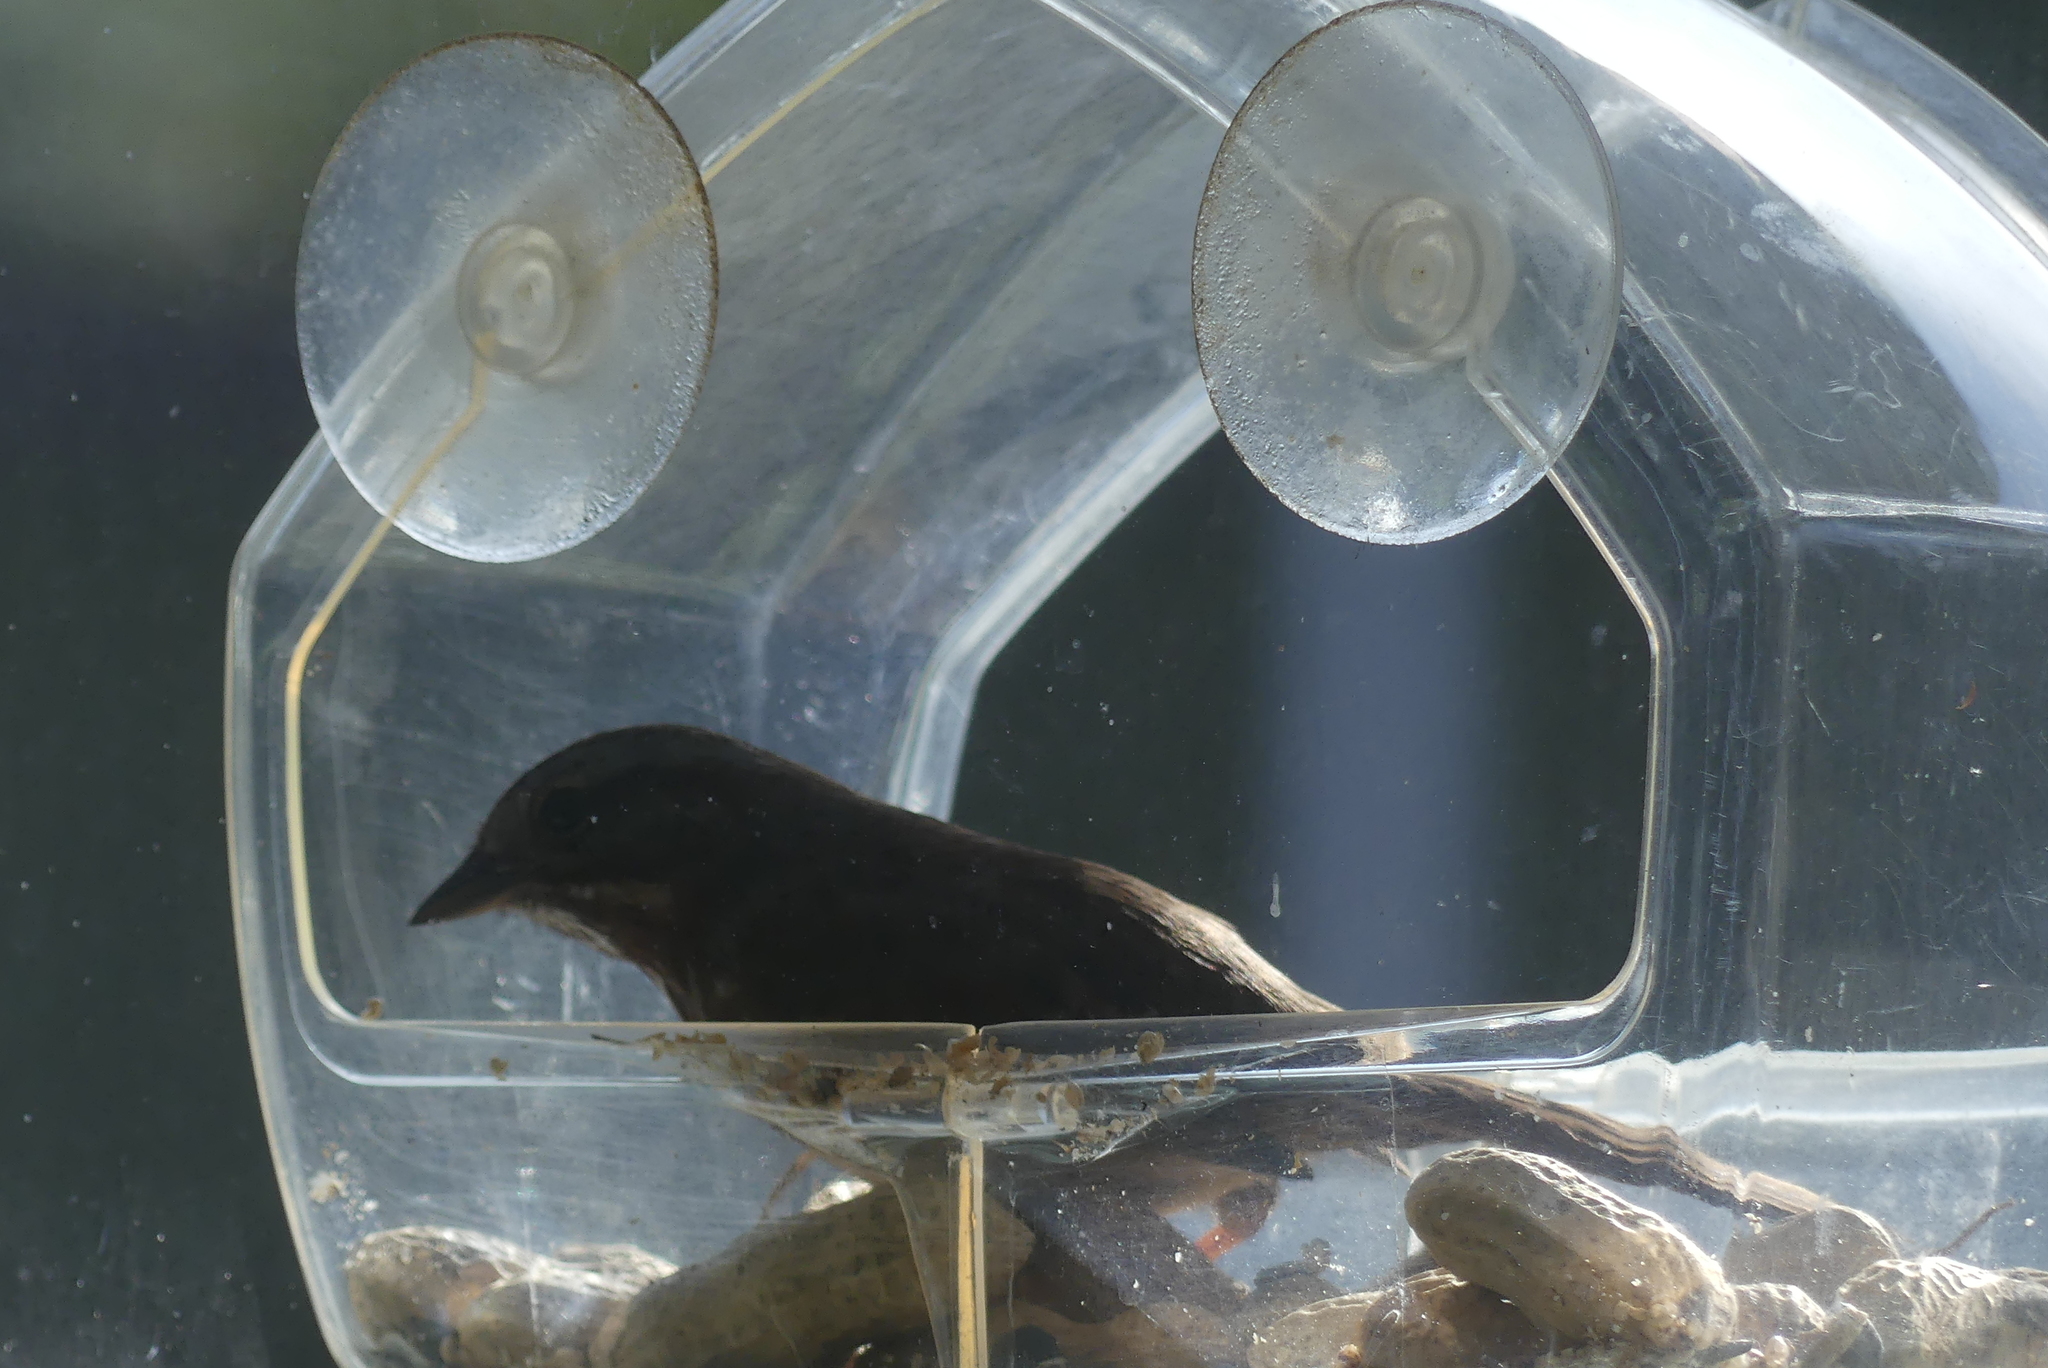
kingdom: Animalia
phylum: Chordata
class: Aves
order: Passeriformes
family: Passerellidae
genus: Melospiza
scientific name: Melospiza melodia
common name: Song sparrow
